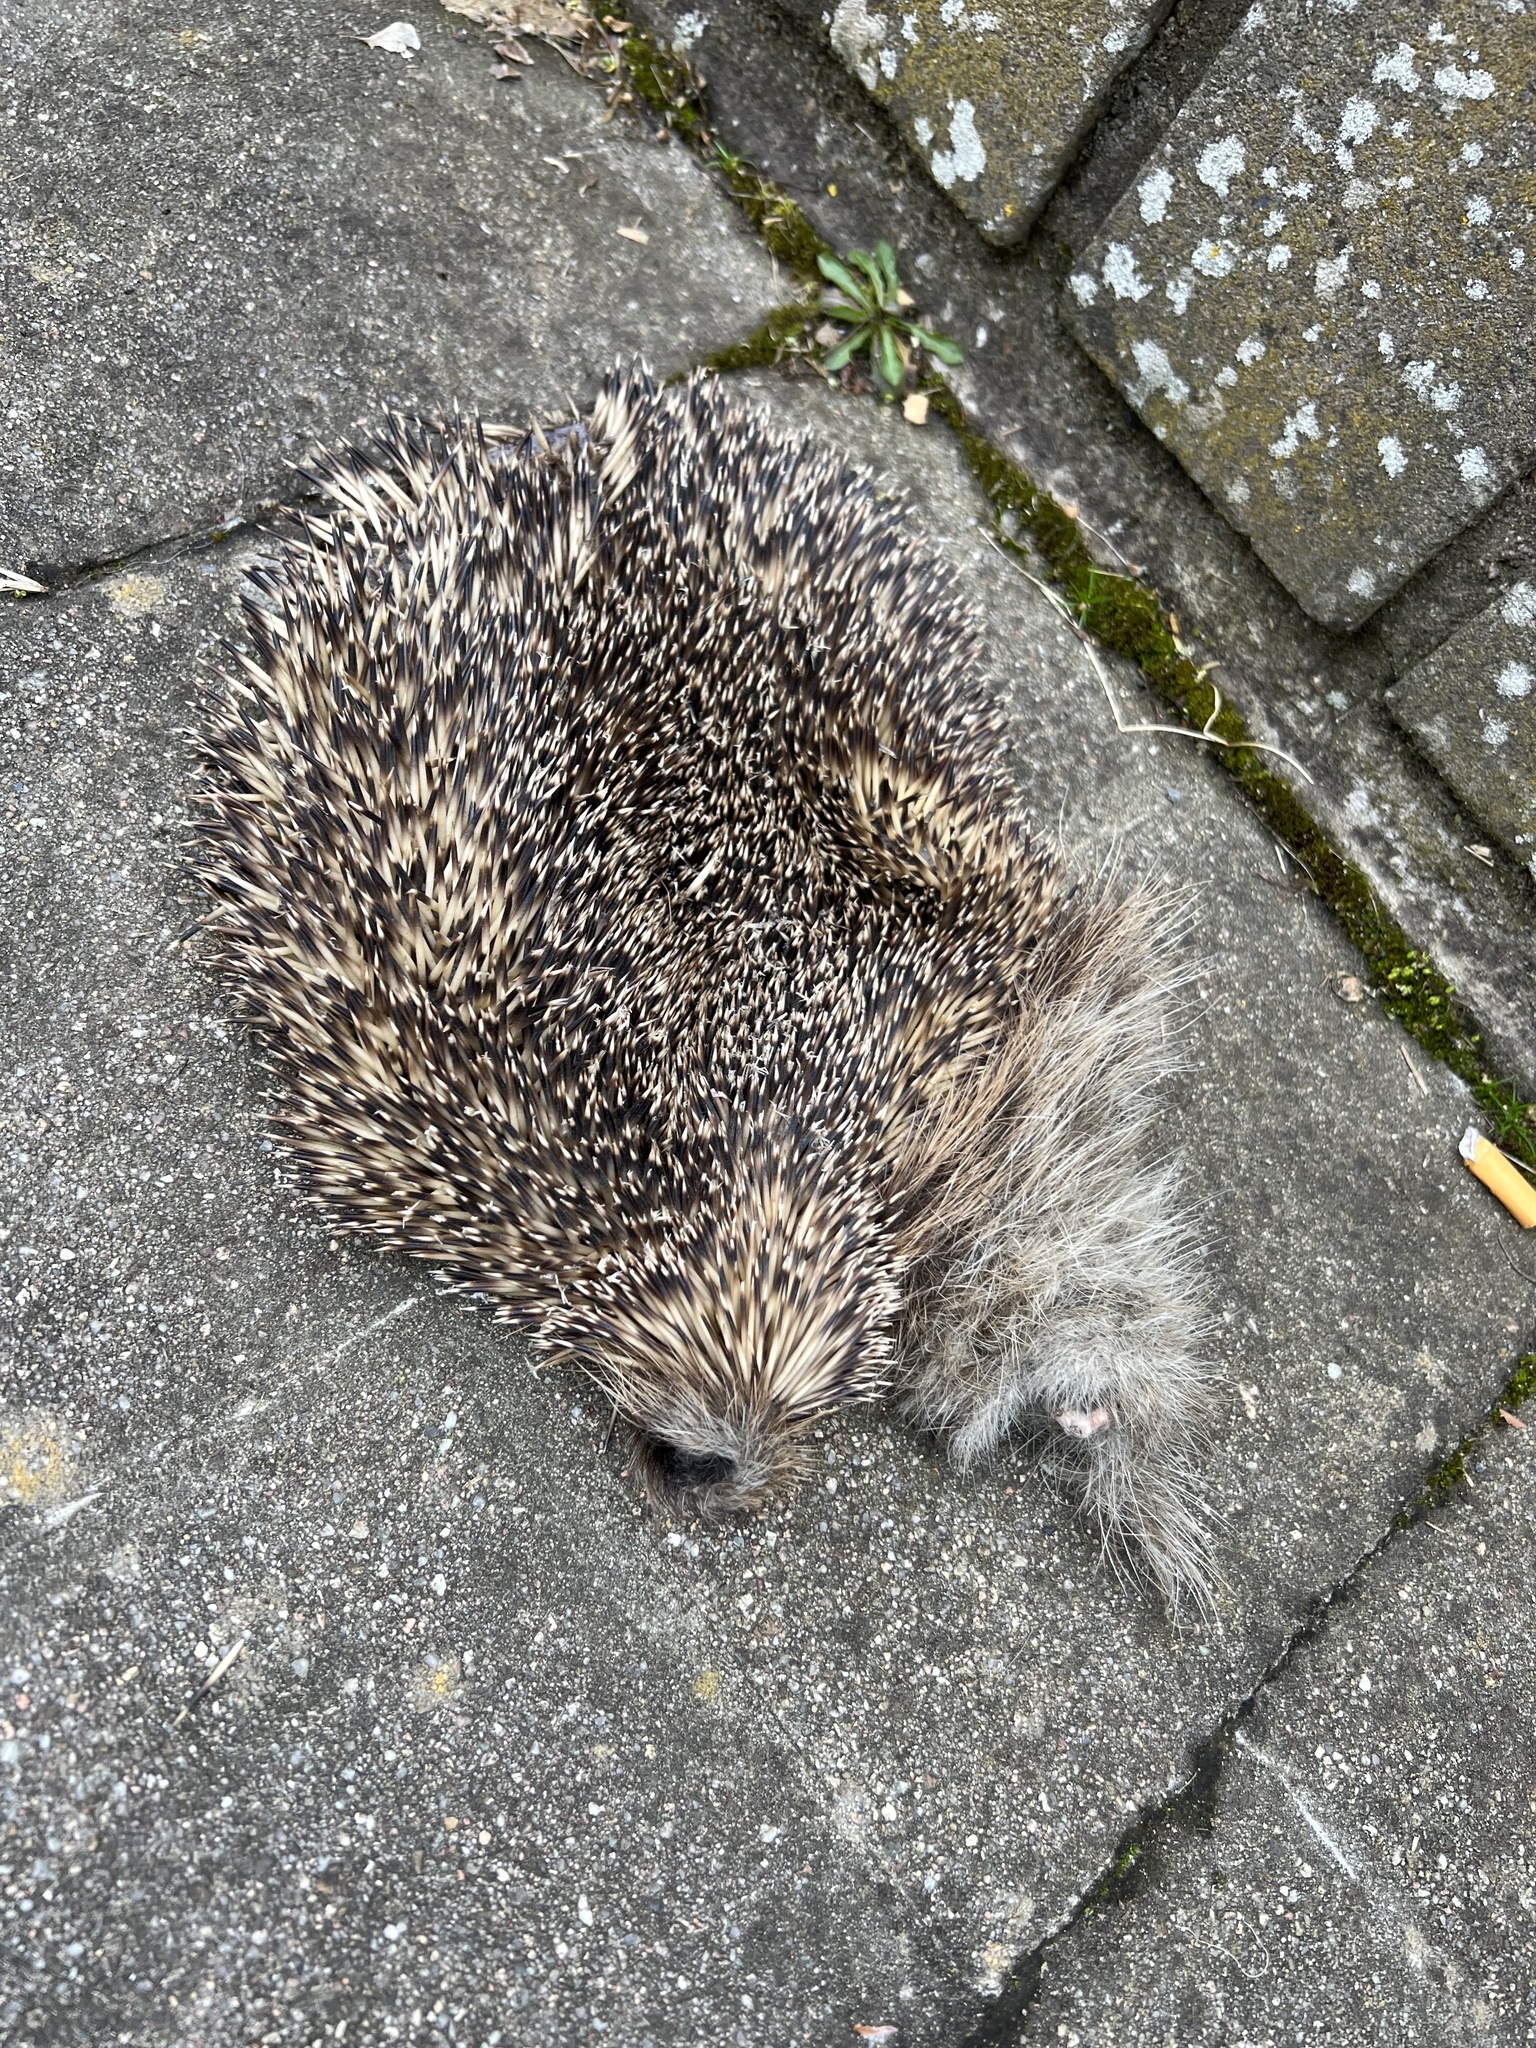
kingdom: Animalia
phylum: Chordata
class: Mammalia
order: Erinaceomorpha
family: Erinaceidae
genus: Erinaceus
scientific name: Erinaceus europaeus
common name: West european hedgehog
